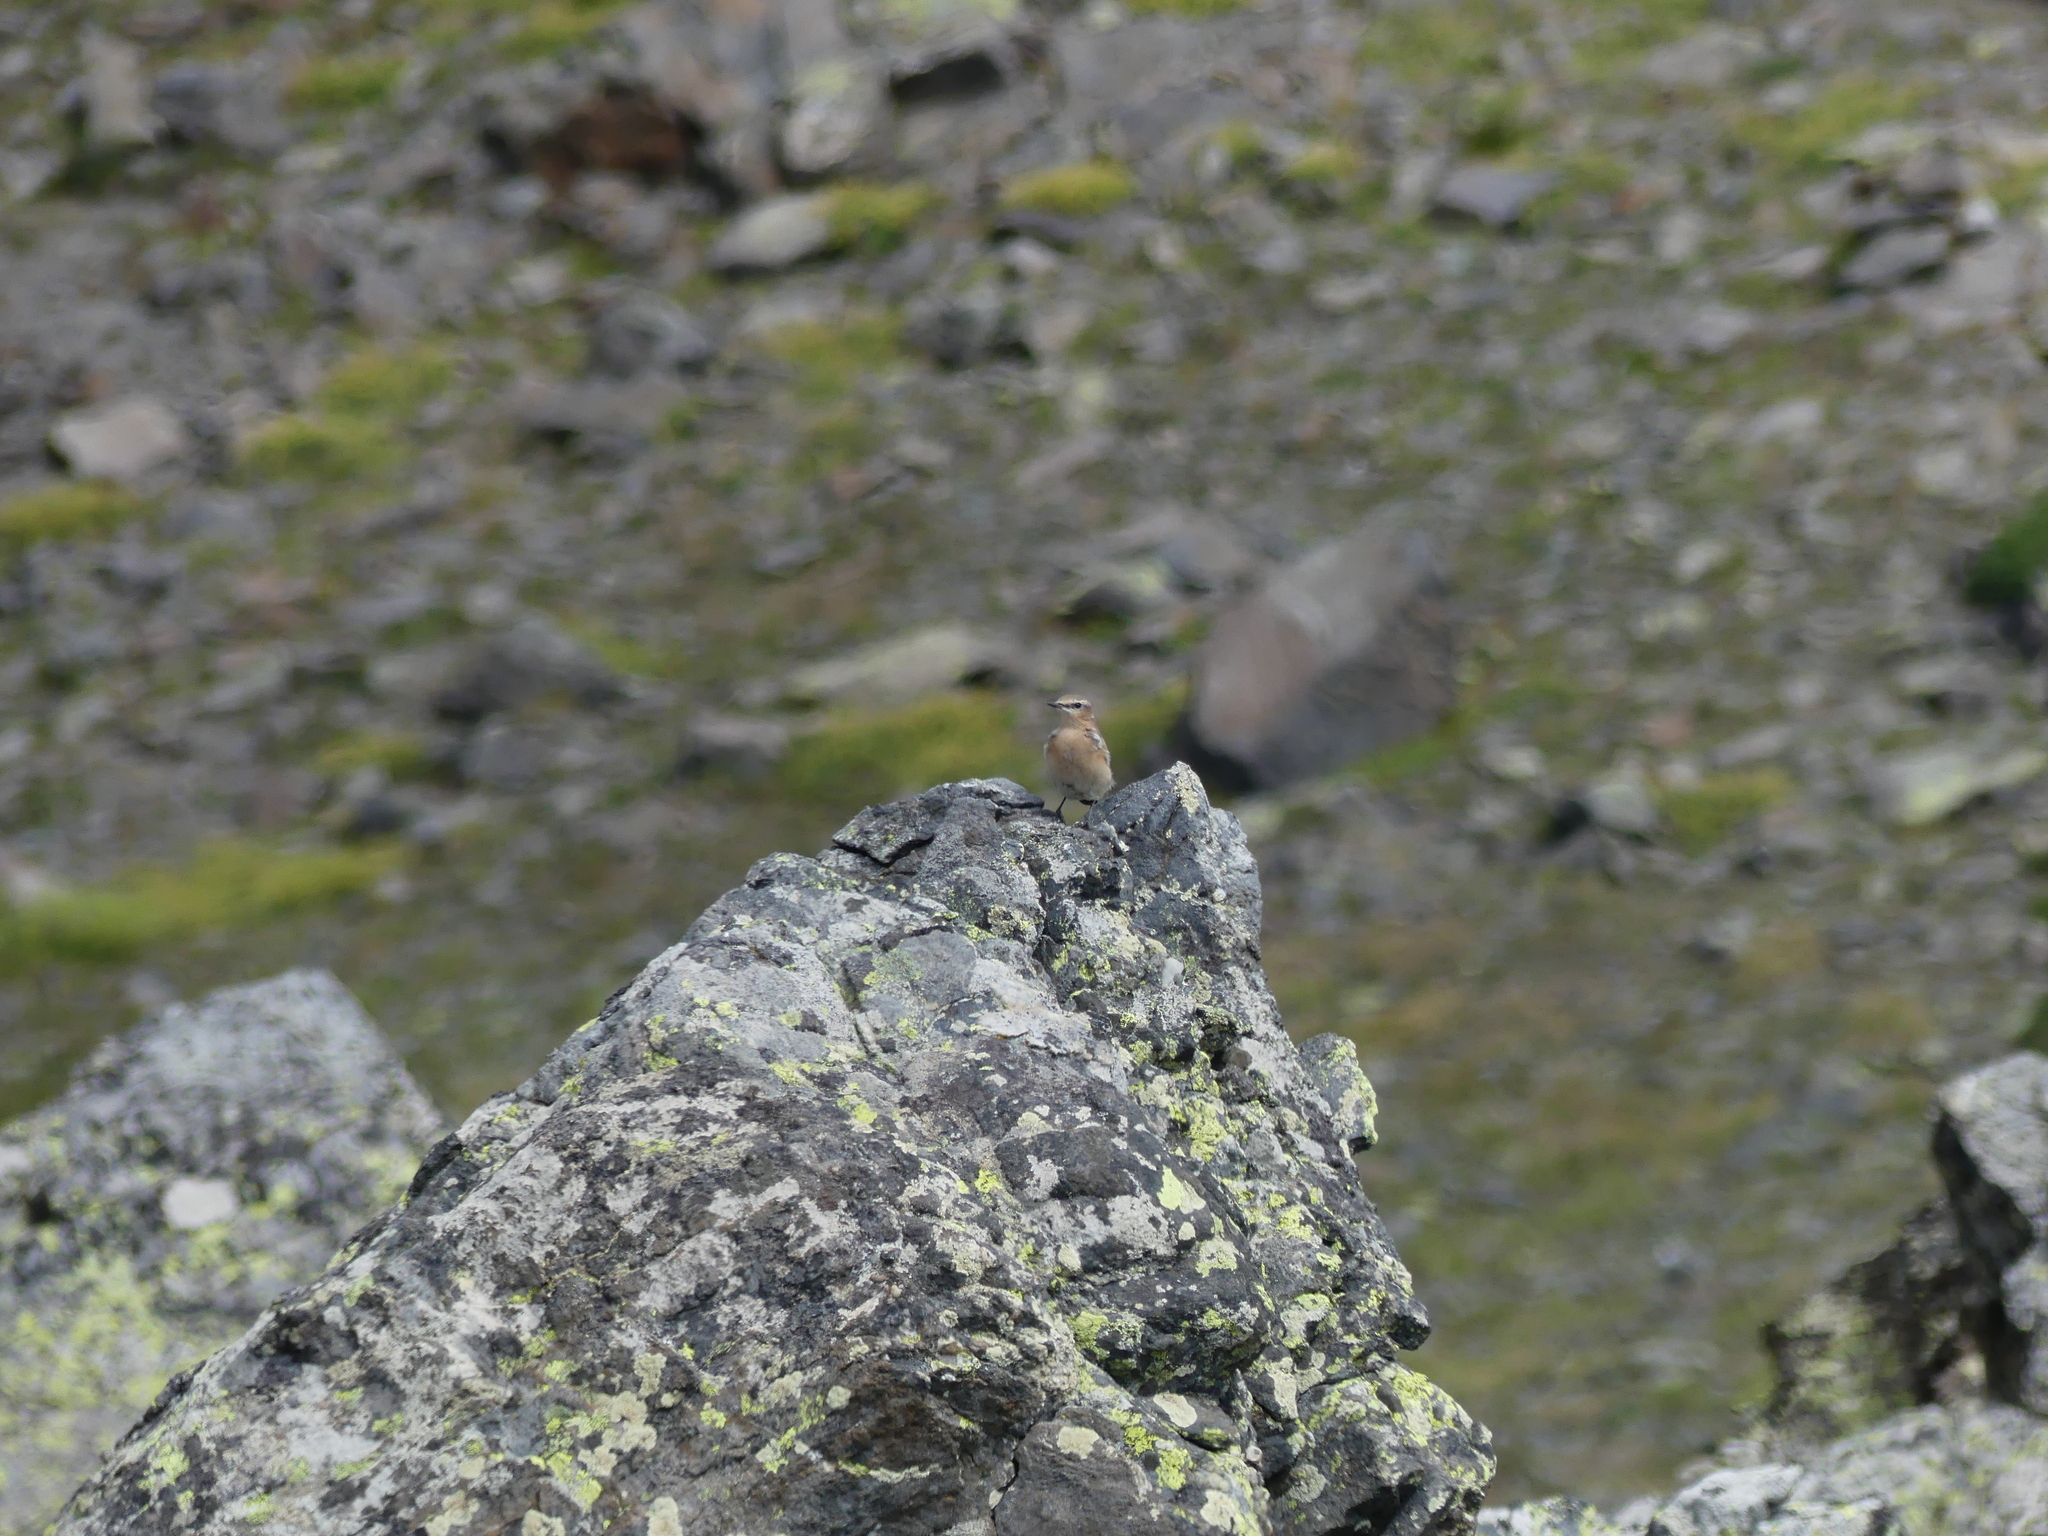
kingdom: Animalia
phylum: Chordata
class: Aves
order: Passeriformes
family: Muscicapidae
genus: Oenanthe
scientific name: Oenanthe oenanthe
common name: Northern wheatear
